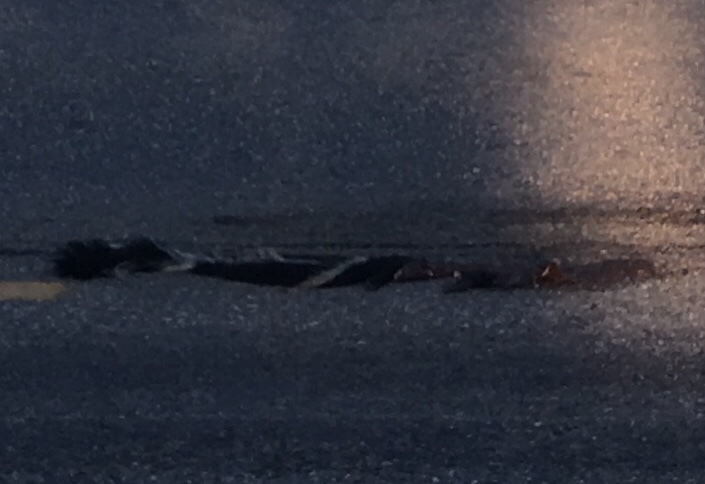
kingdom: Animalia
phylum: Chordata
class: Mammalia
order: Carnivora
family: Mephitidae
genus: Mephitis
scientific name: Mephitis mephitis
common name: Striped skunk
